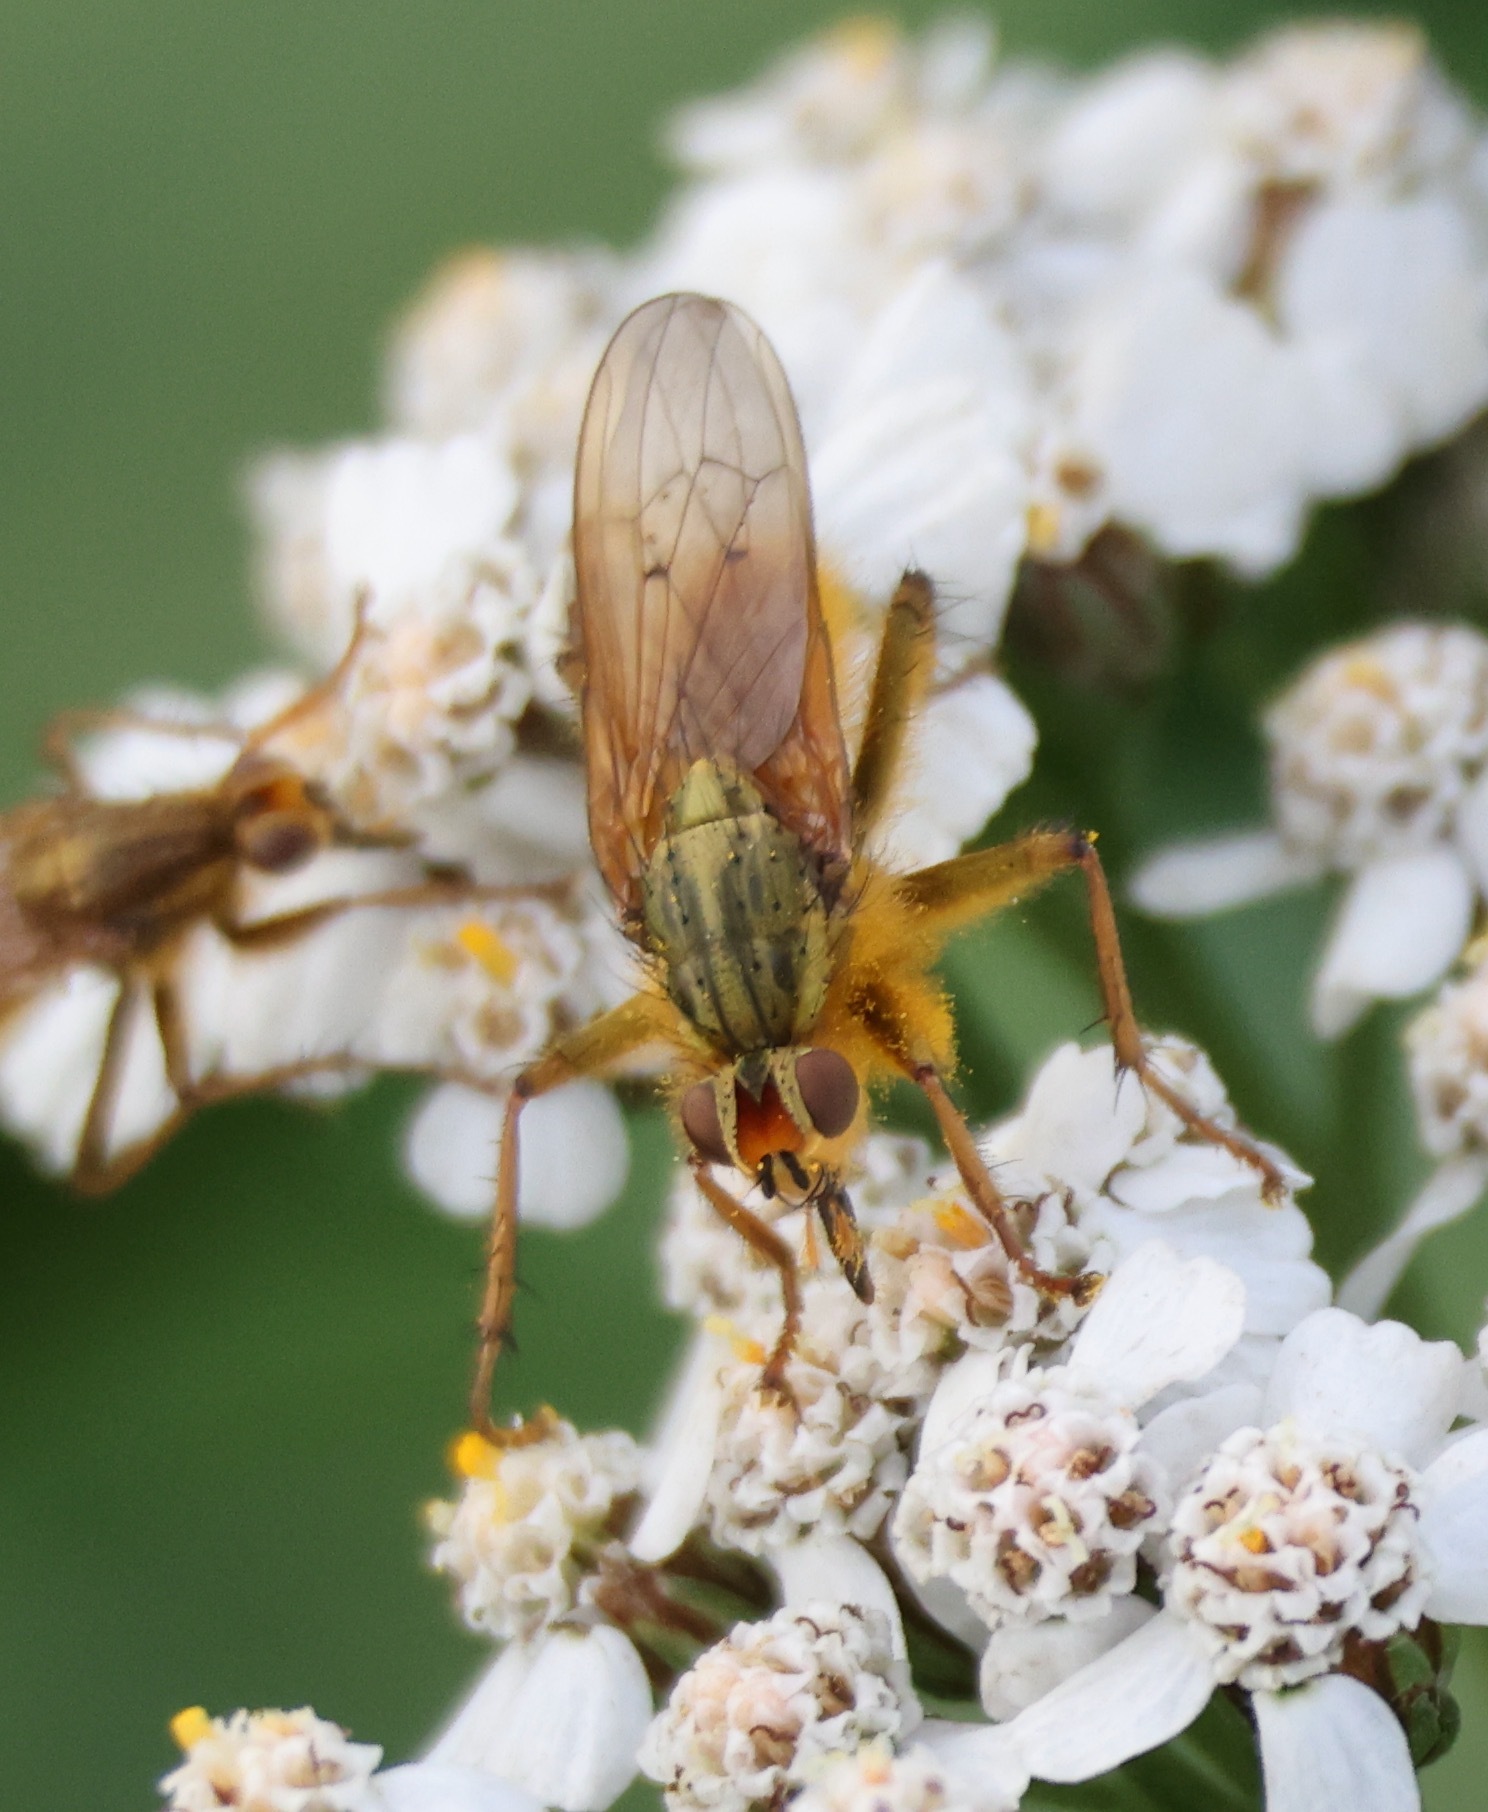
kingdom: Animalia
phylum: Arthropoda
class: Insecta
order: Diptera
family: Scathophagidae
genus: Scathophaga
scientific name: Scathophaga stercoraria
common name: Yellow dung fly
